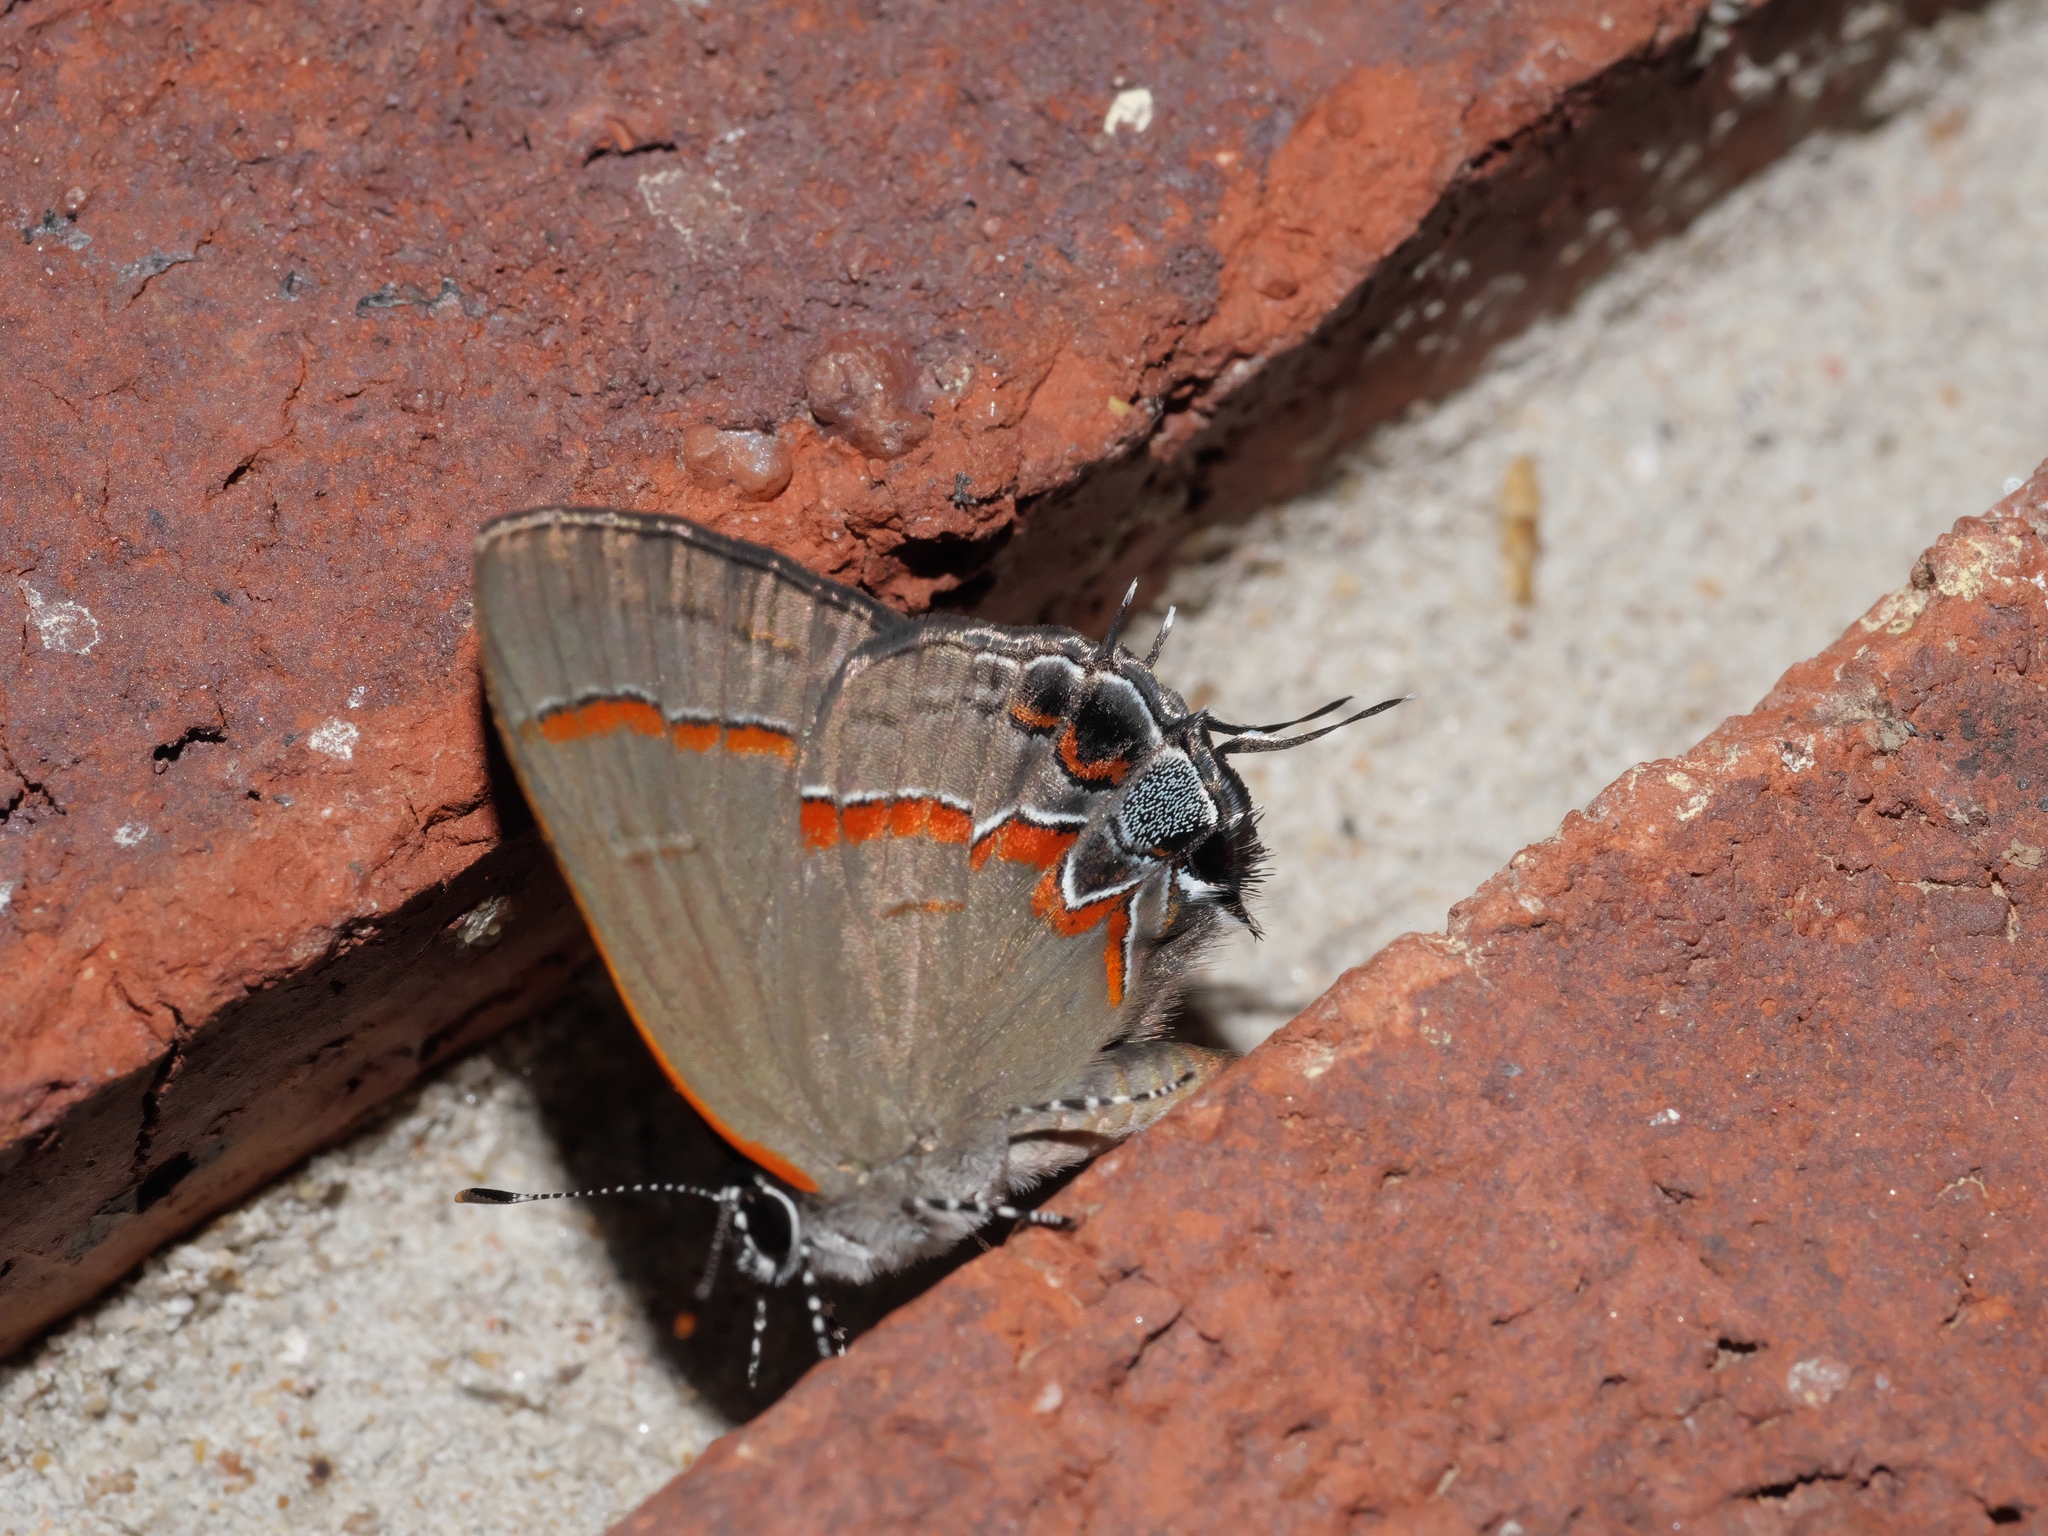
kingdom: Animalia
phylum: Arthropoda
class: Insecta
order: Lepidoptera
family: Lycaenidae
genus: Calycopis
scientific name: Calycopis cecrops
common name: Red-banded hairstreak
